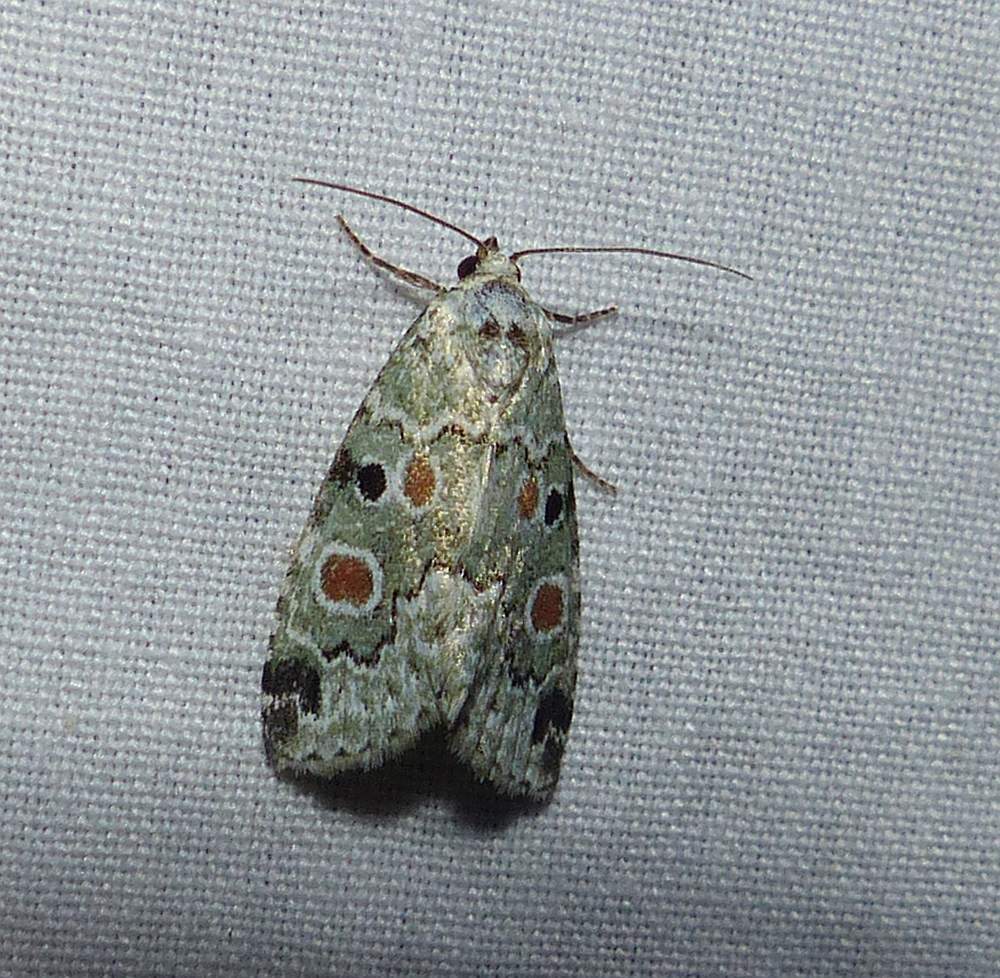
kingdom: Animalia
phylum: Arthropoda
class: Insecta
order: Lepidoptera
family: Noctuidae
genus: Maliattha
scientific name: Maliattha concinnimacula
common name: Red-spotted glyph
